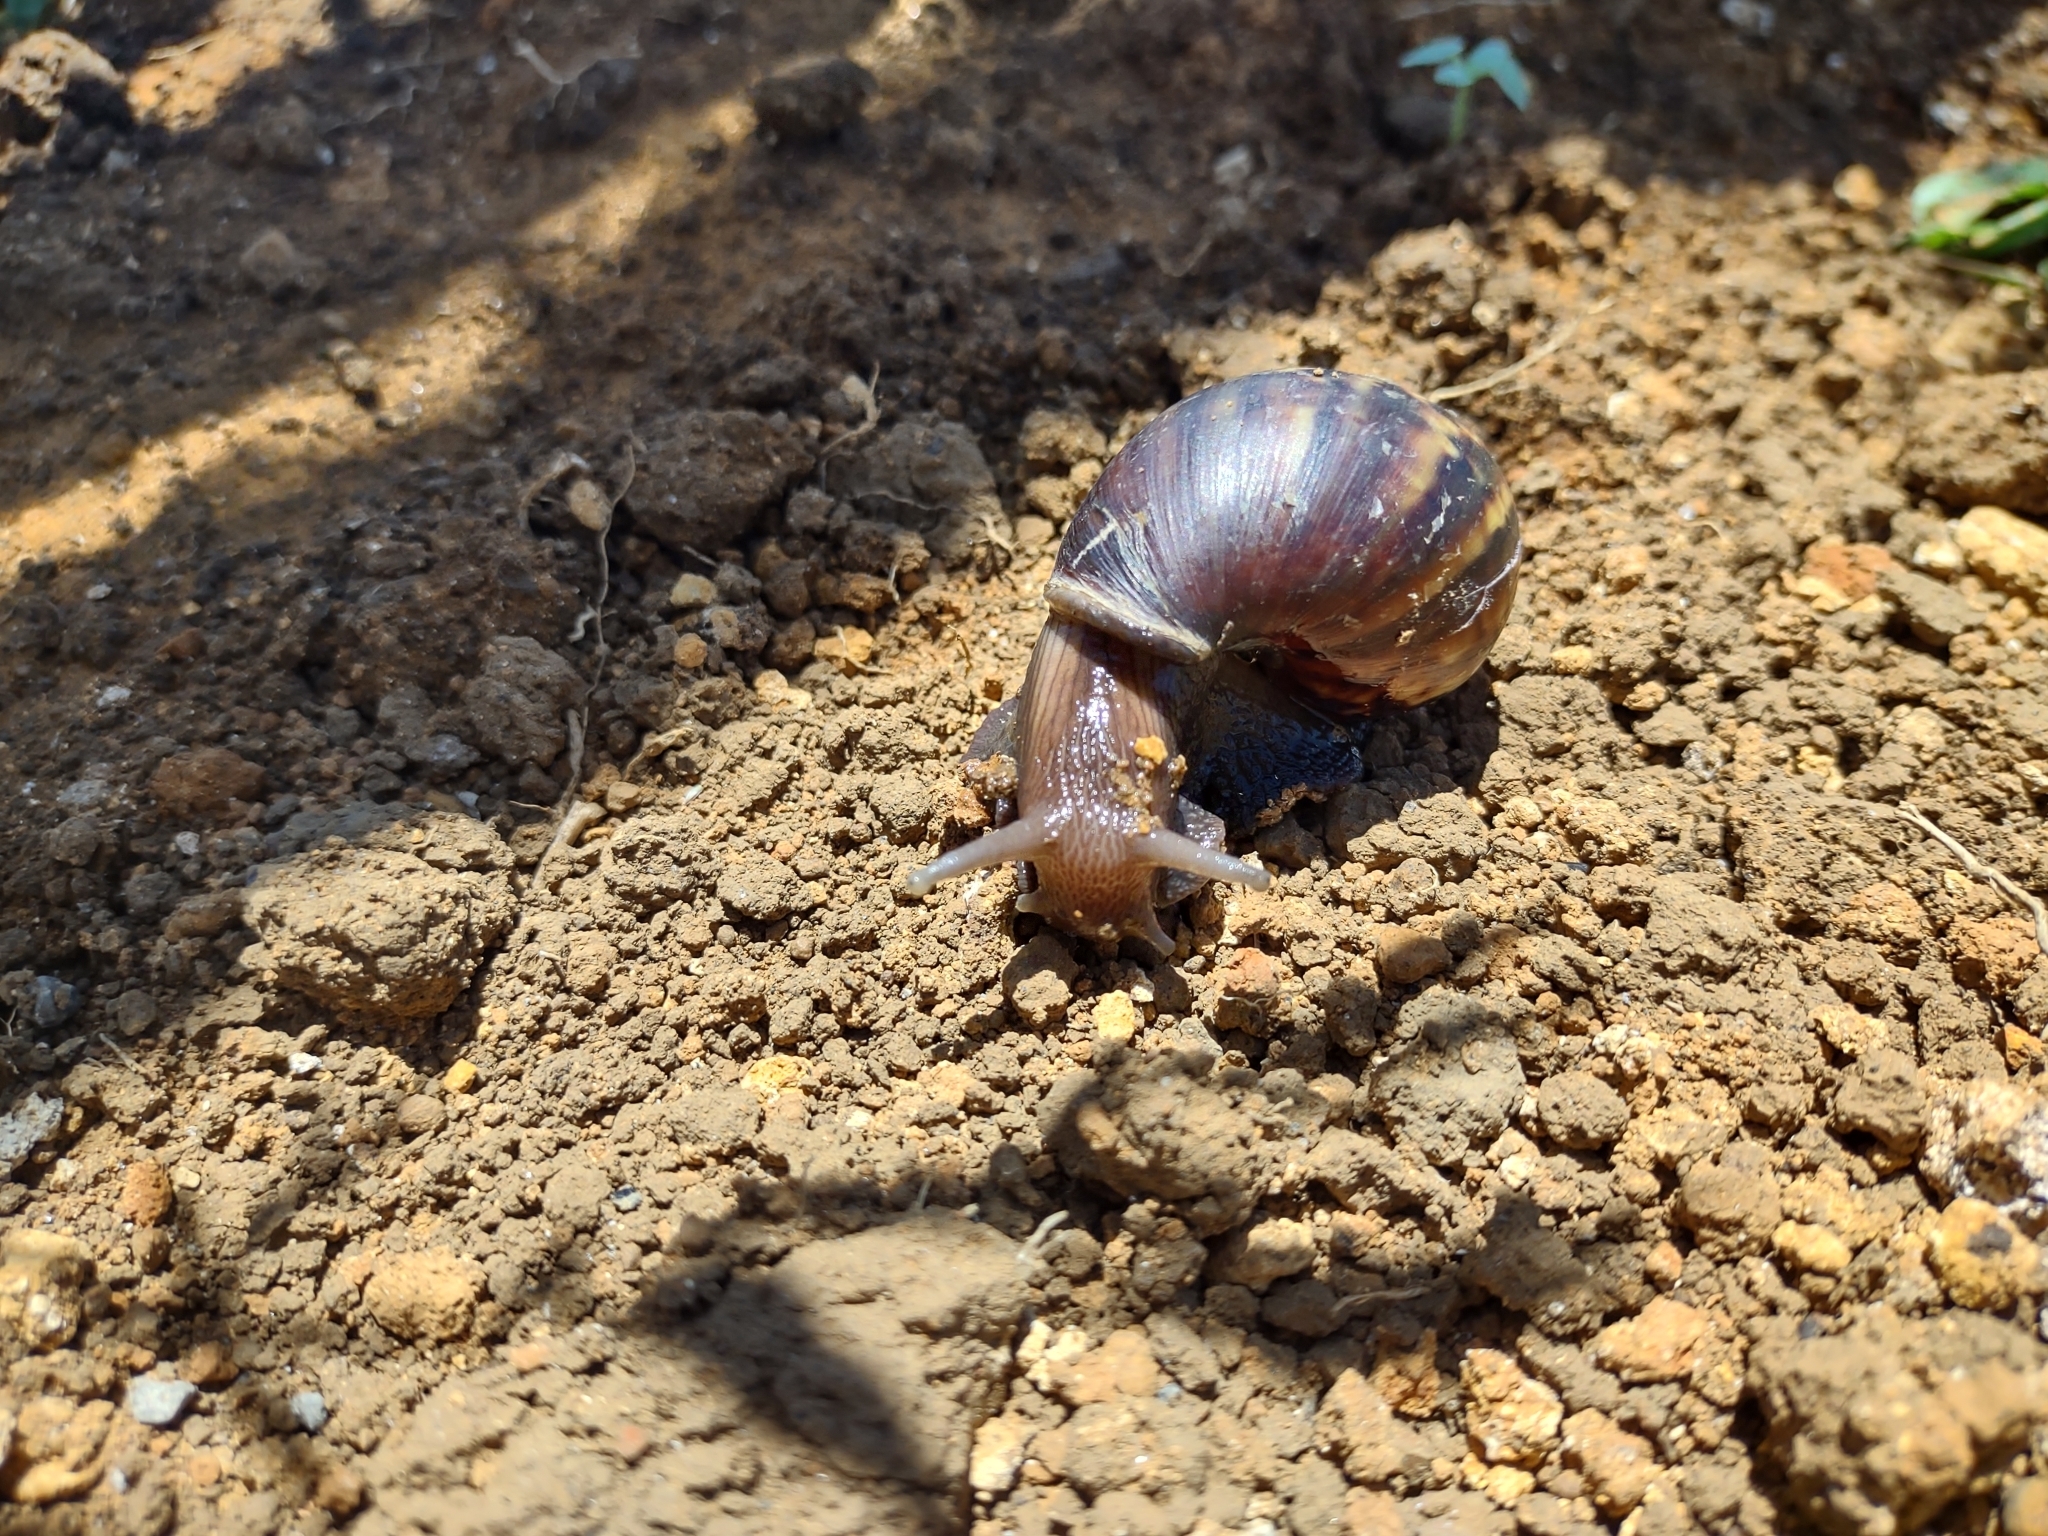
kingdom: Animalia
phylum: Mollusca
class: Gastropoda
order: Stylommatophora
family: Achatinidae
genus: Lissachatina
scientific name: Lissachatina fulica
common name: Giant african snail
